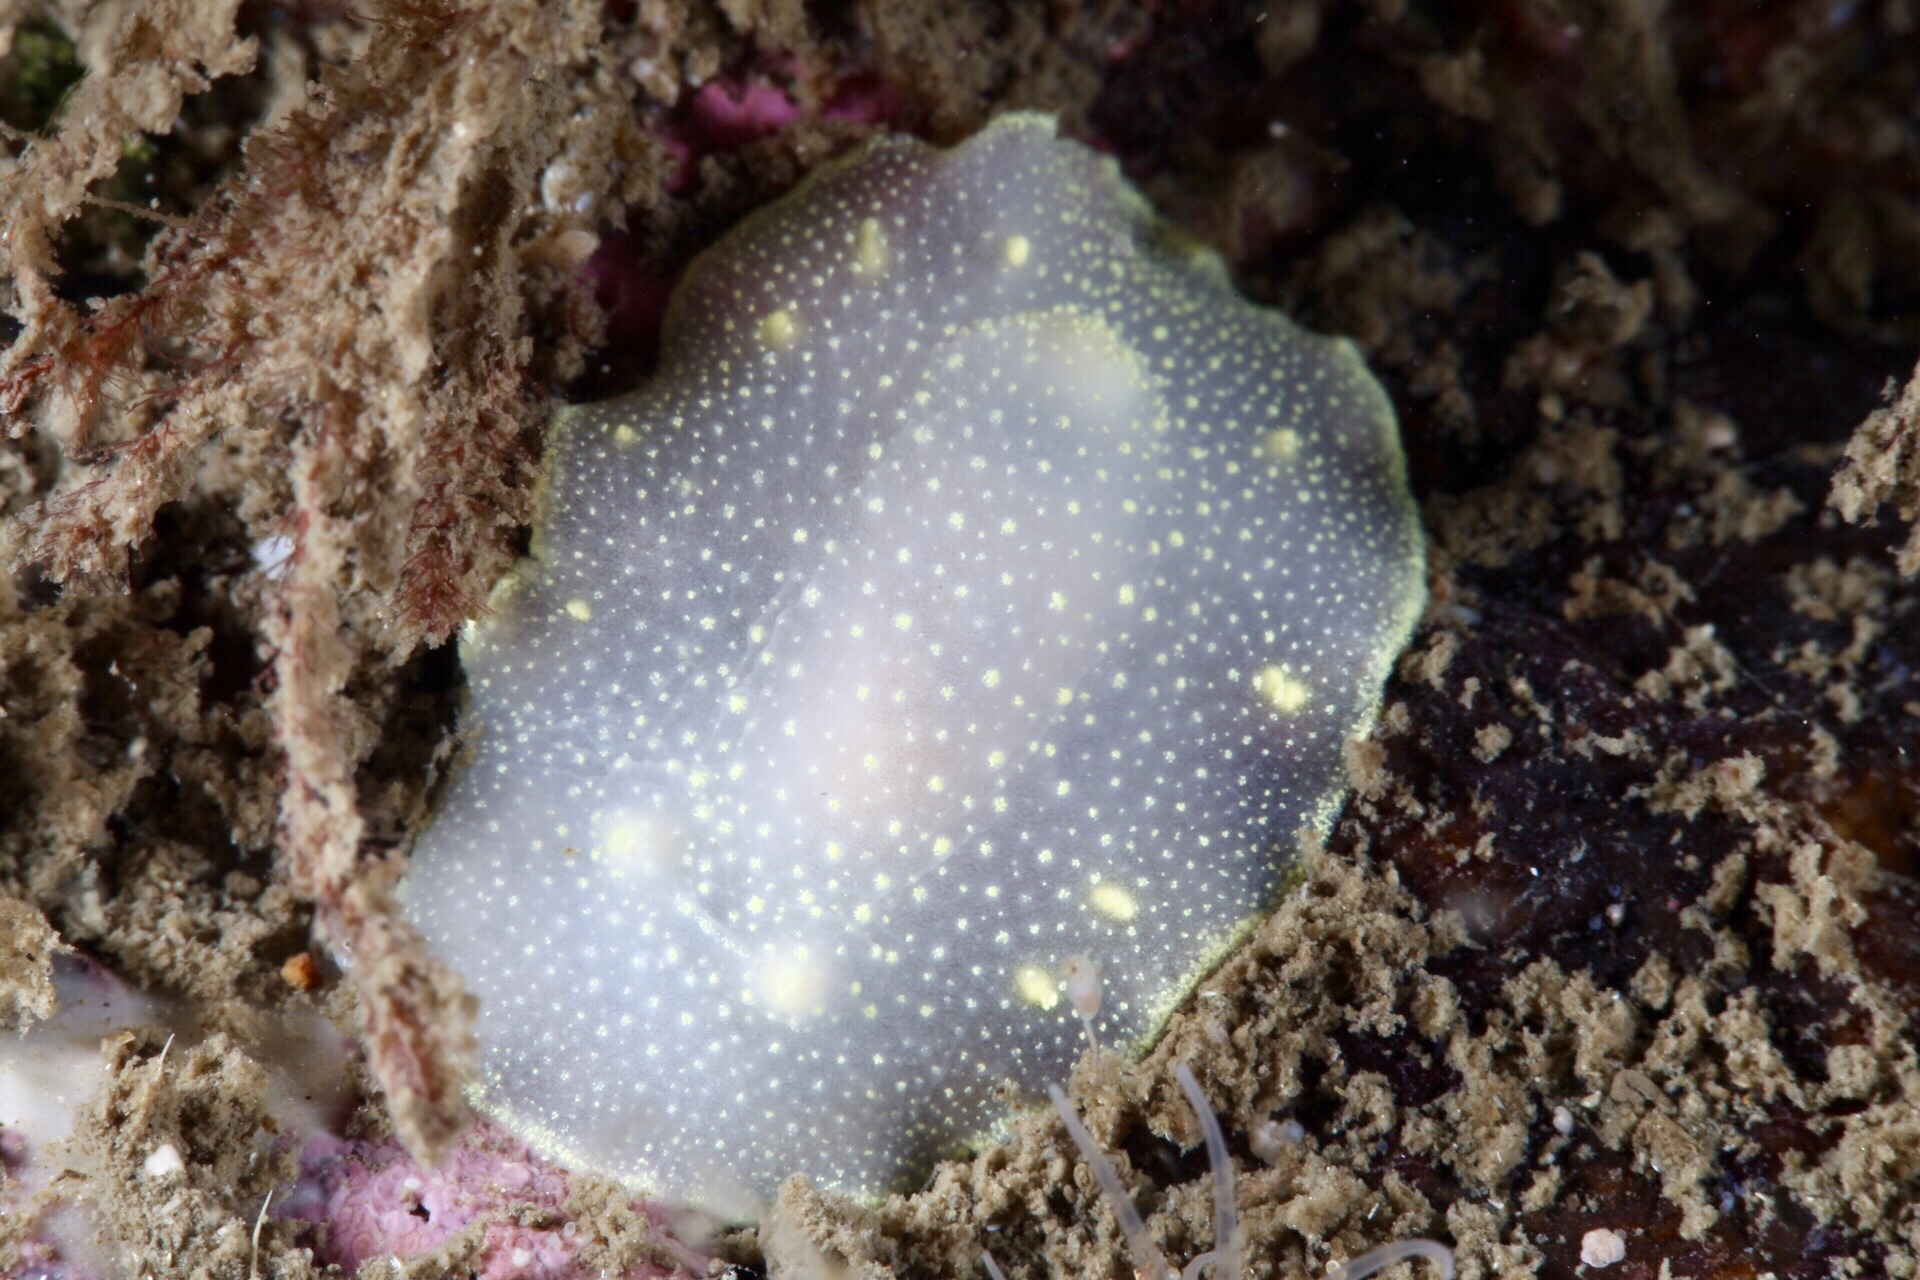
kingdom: Animalia
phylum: Mollusca
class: Gastropoda
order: Nudibranchia
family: Cadlinidae
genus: Cadlina
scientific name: Cadlina laevis
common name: White atlantic cadlina
